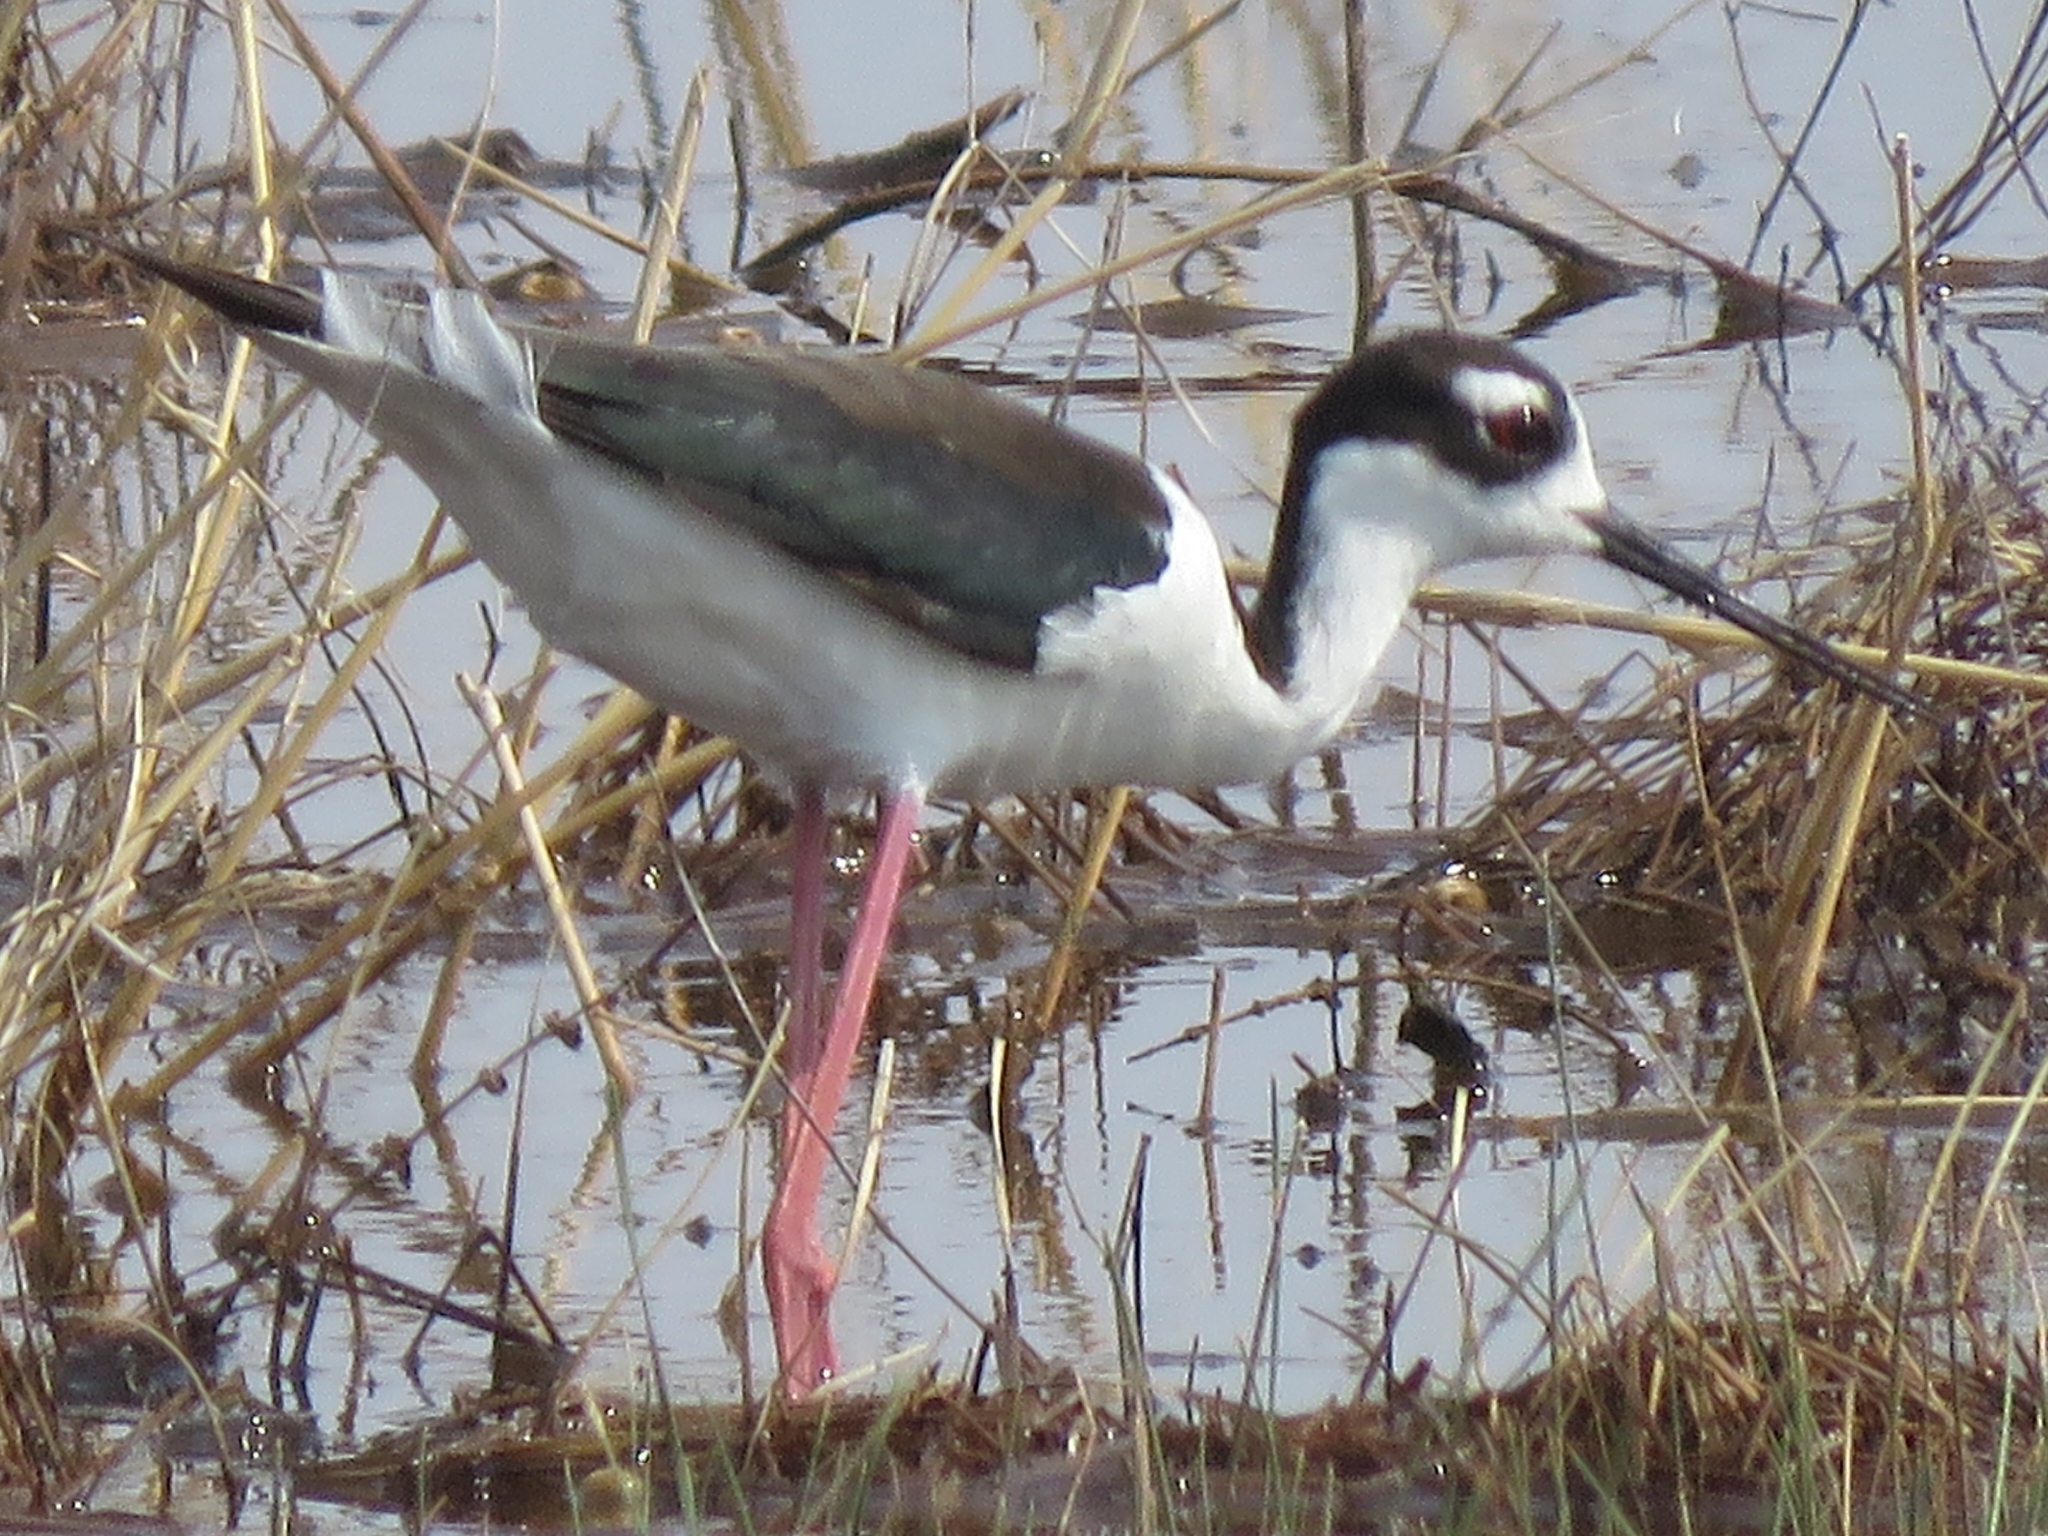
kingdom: Animalia
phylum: Chordata
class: Aves
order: Charadriiformes
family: Recurvirostridae
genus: Himantopus
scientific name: Himantopus mexicanus
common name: Black-necked stilt
